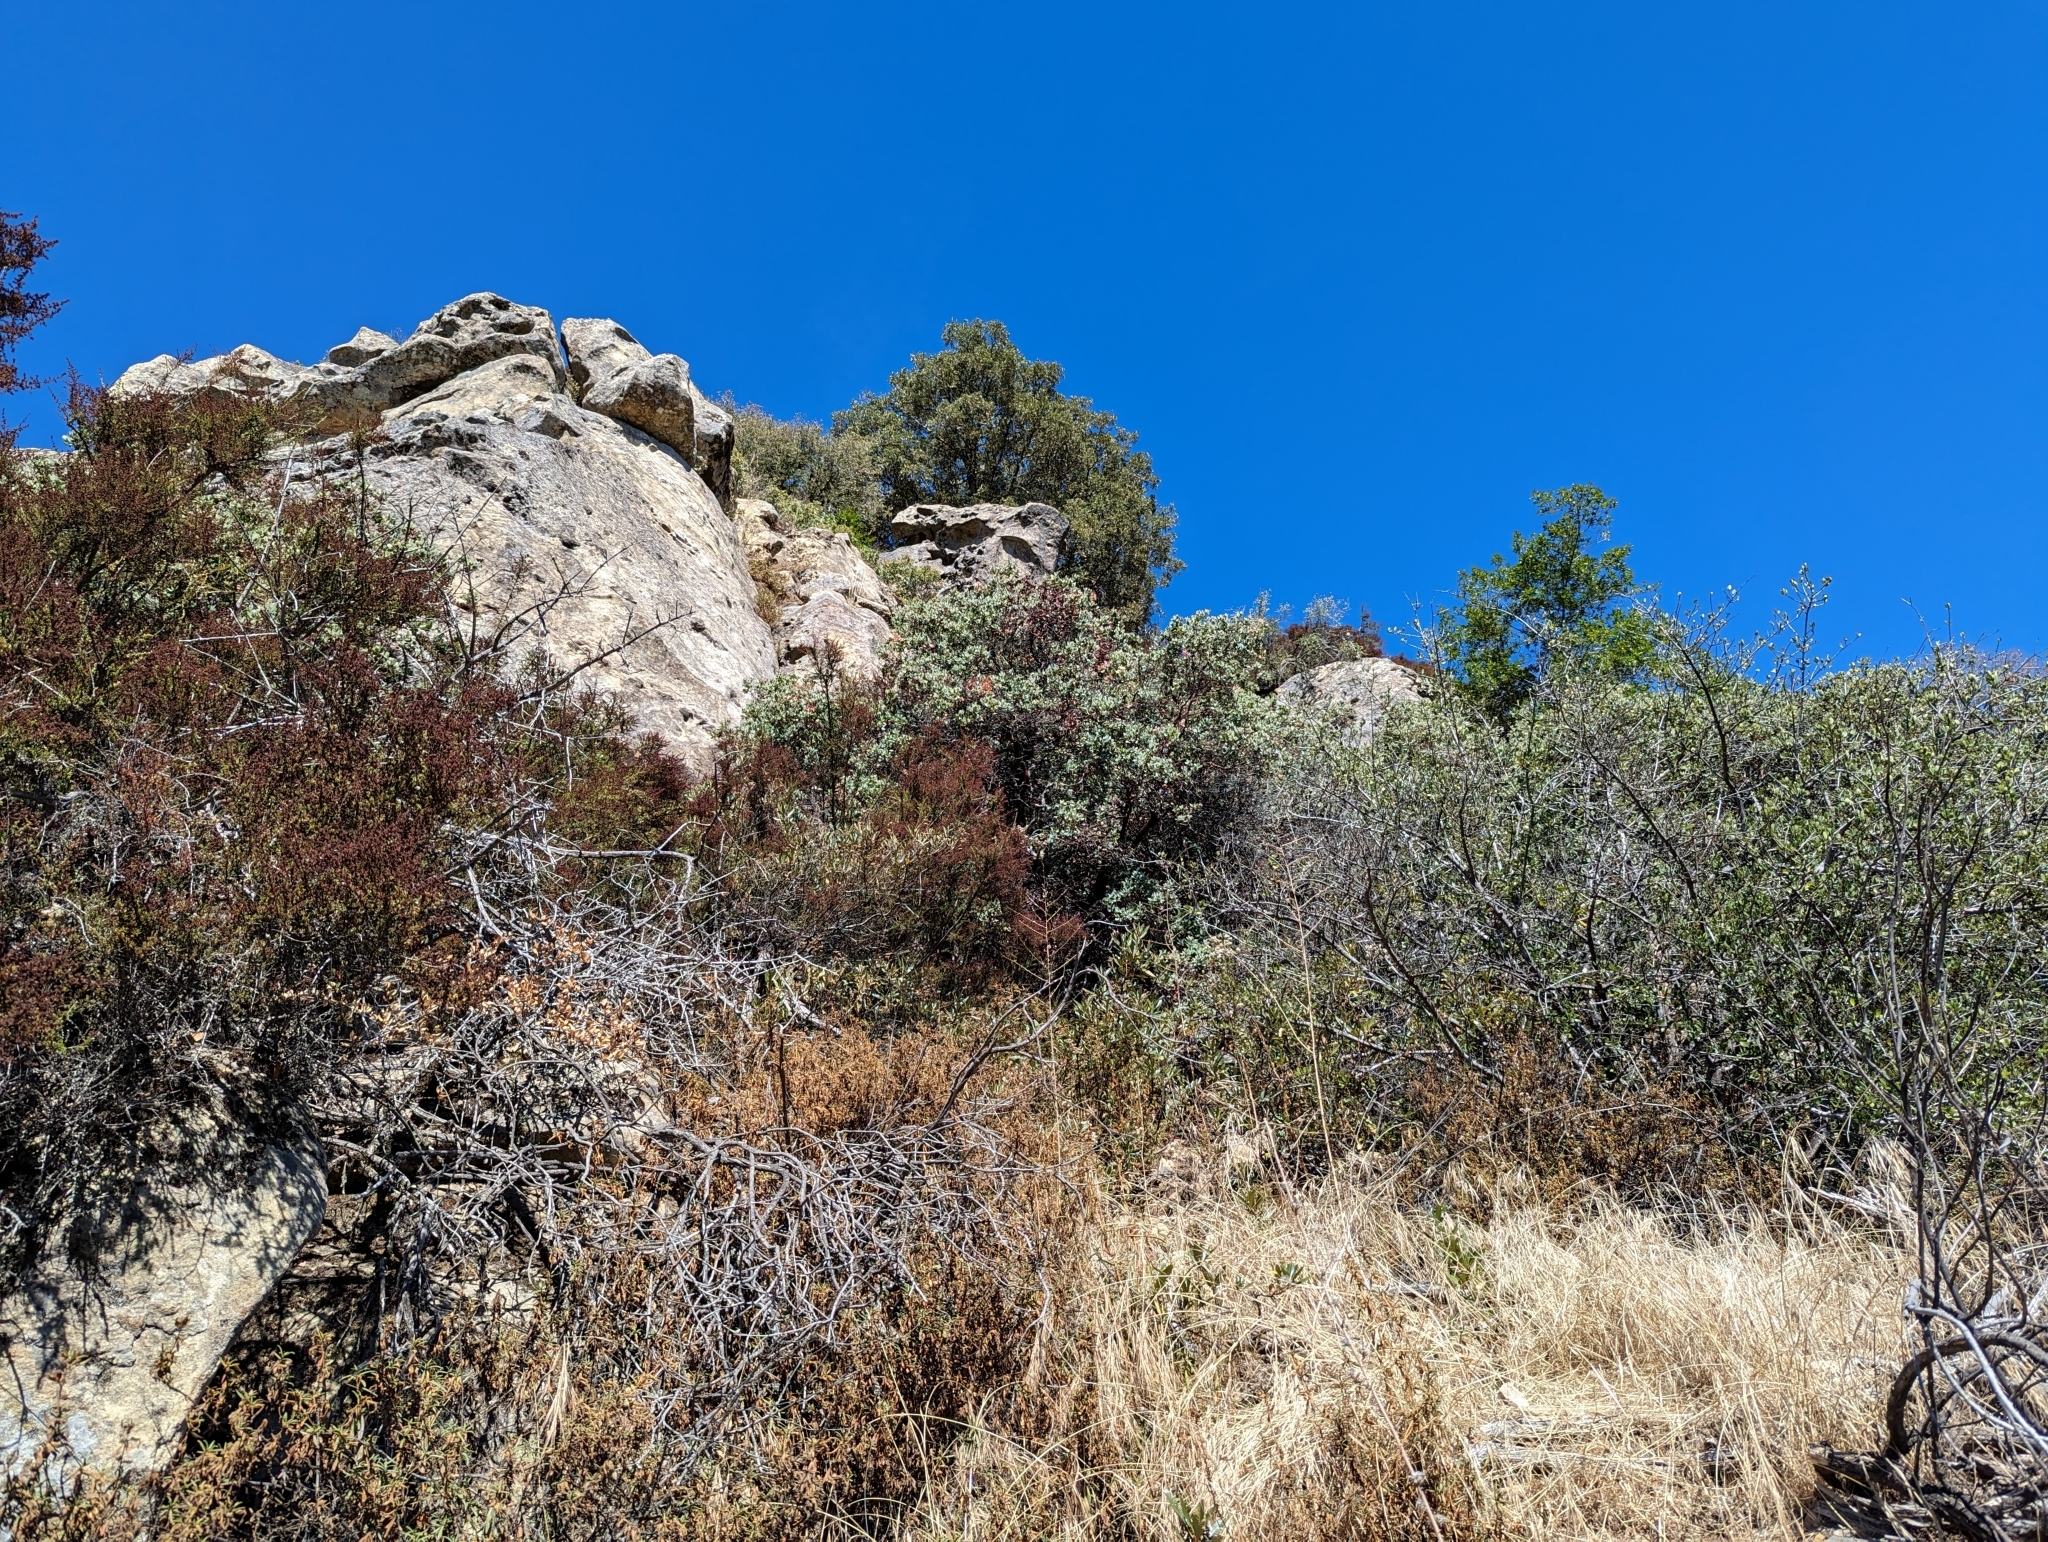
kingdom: Plantae
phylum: Tracheophyta
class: Magnoliopsida
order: Ericales
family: Ericaceae
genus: Arctostaphylos
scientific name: Arctostaphylos crustacea
